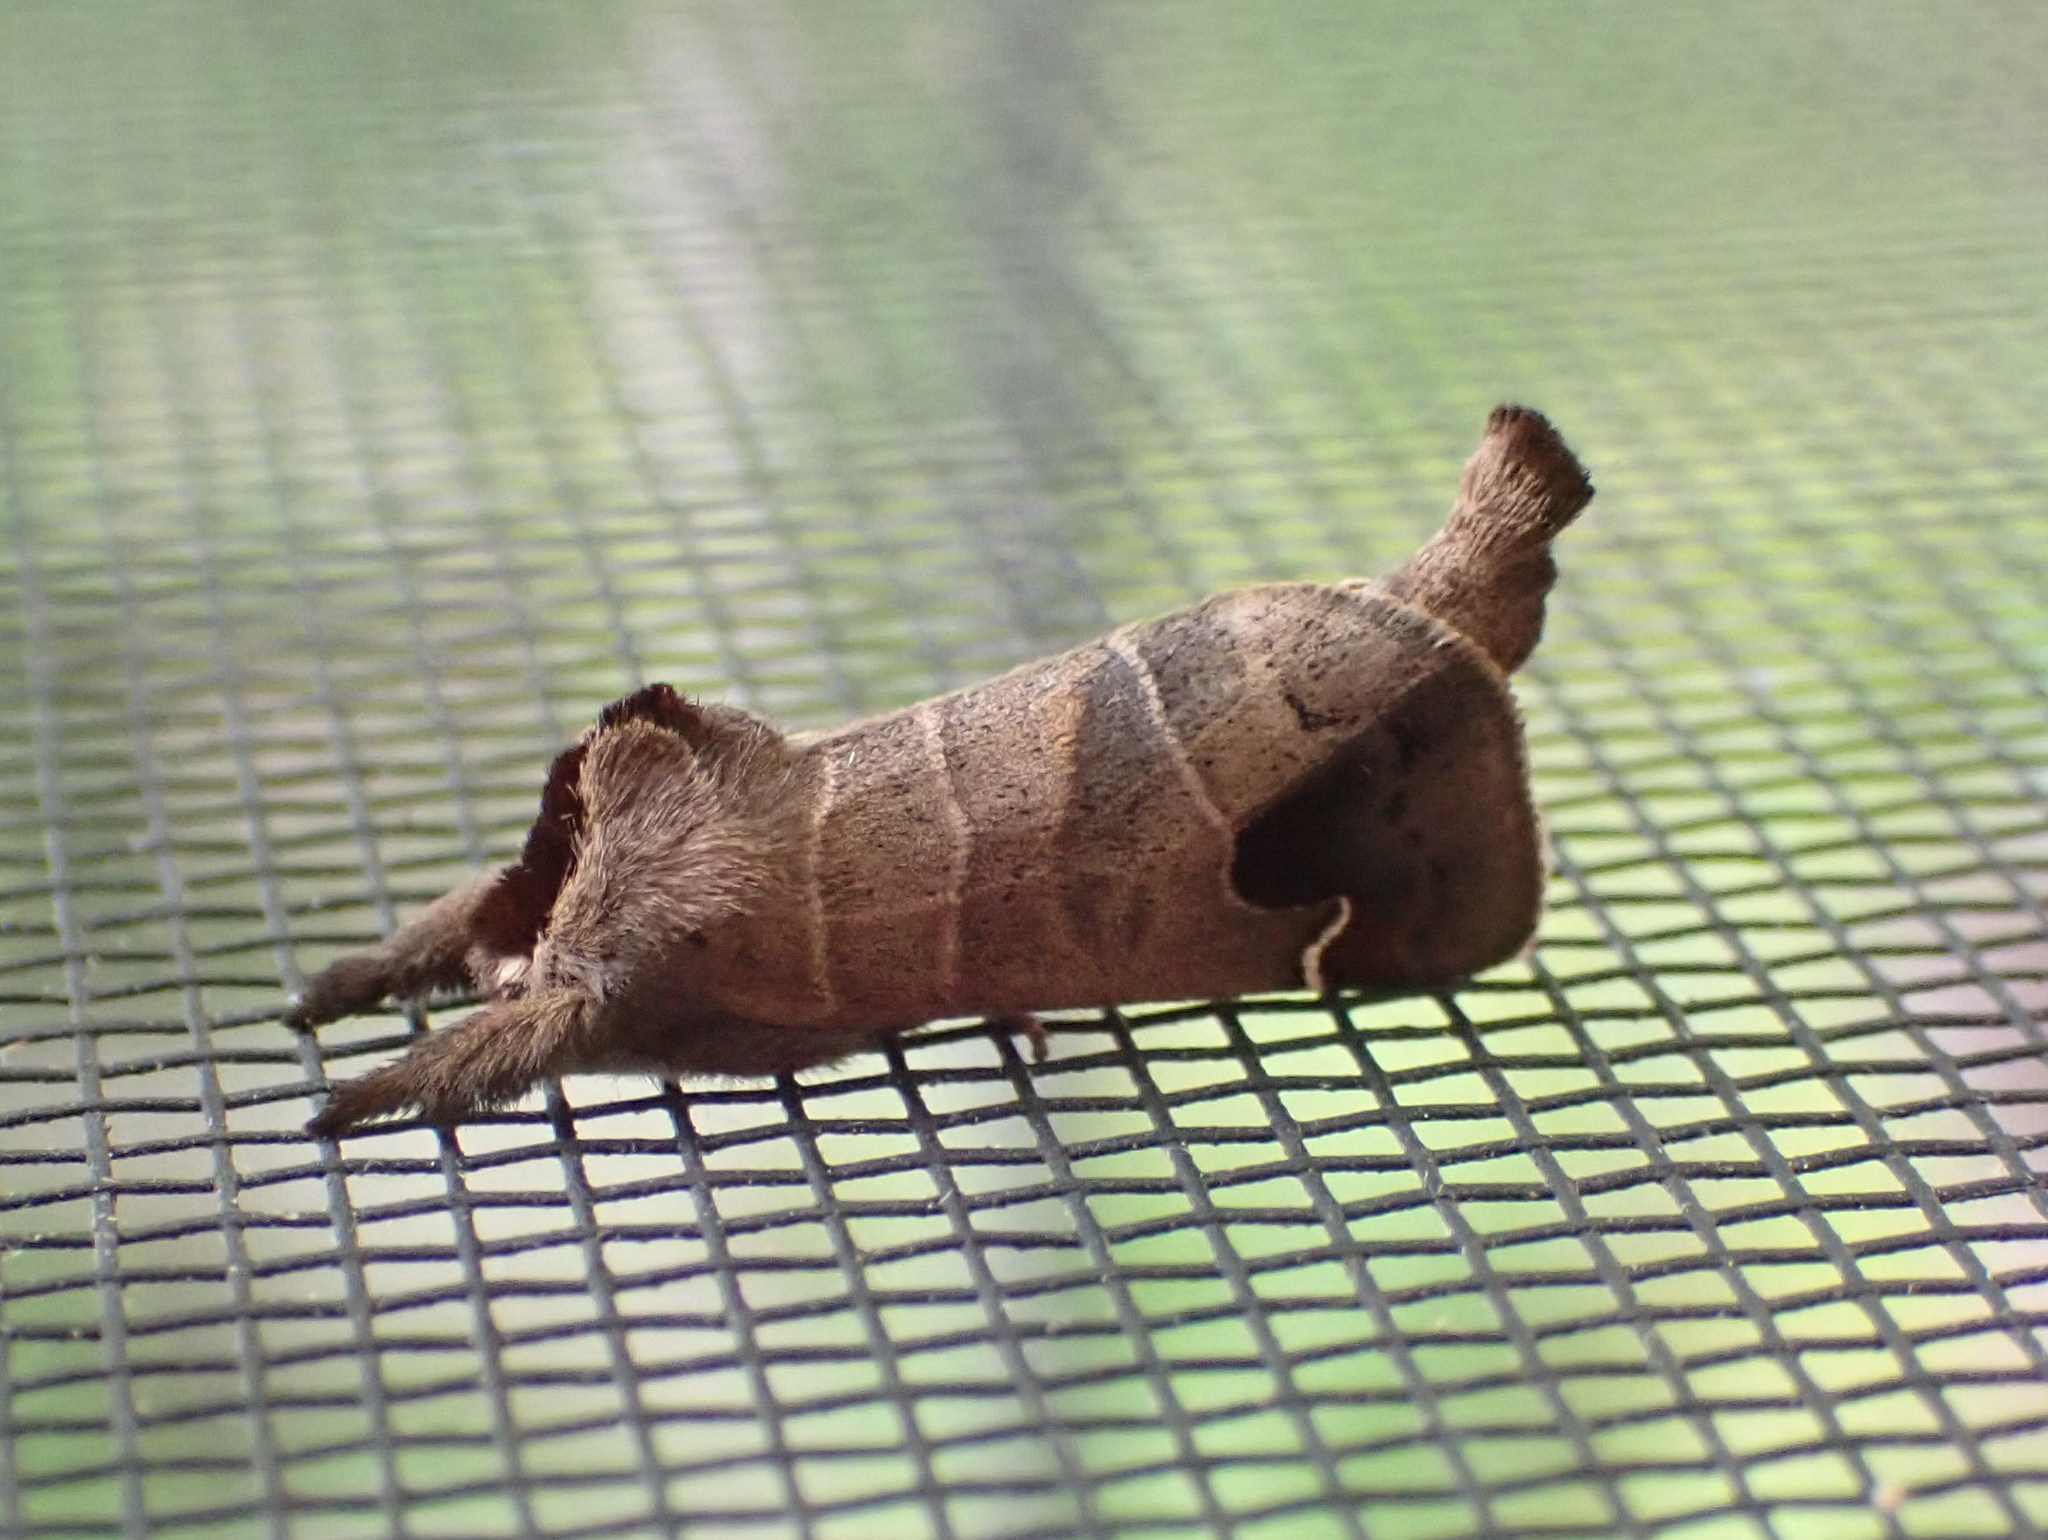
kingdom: Animalia
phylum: Arthropoda
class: Insecta
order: Lepidoptera
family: Notodontidae
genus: Clostera
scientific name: Clostera albosigma
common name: Sigmoid prominent
